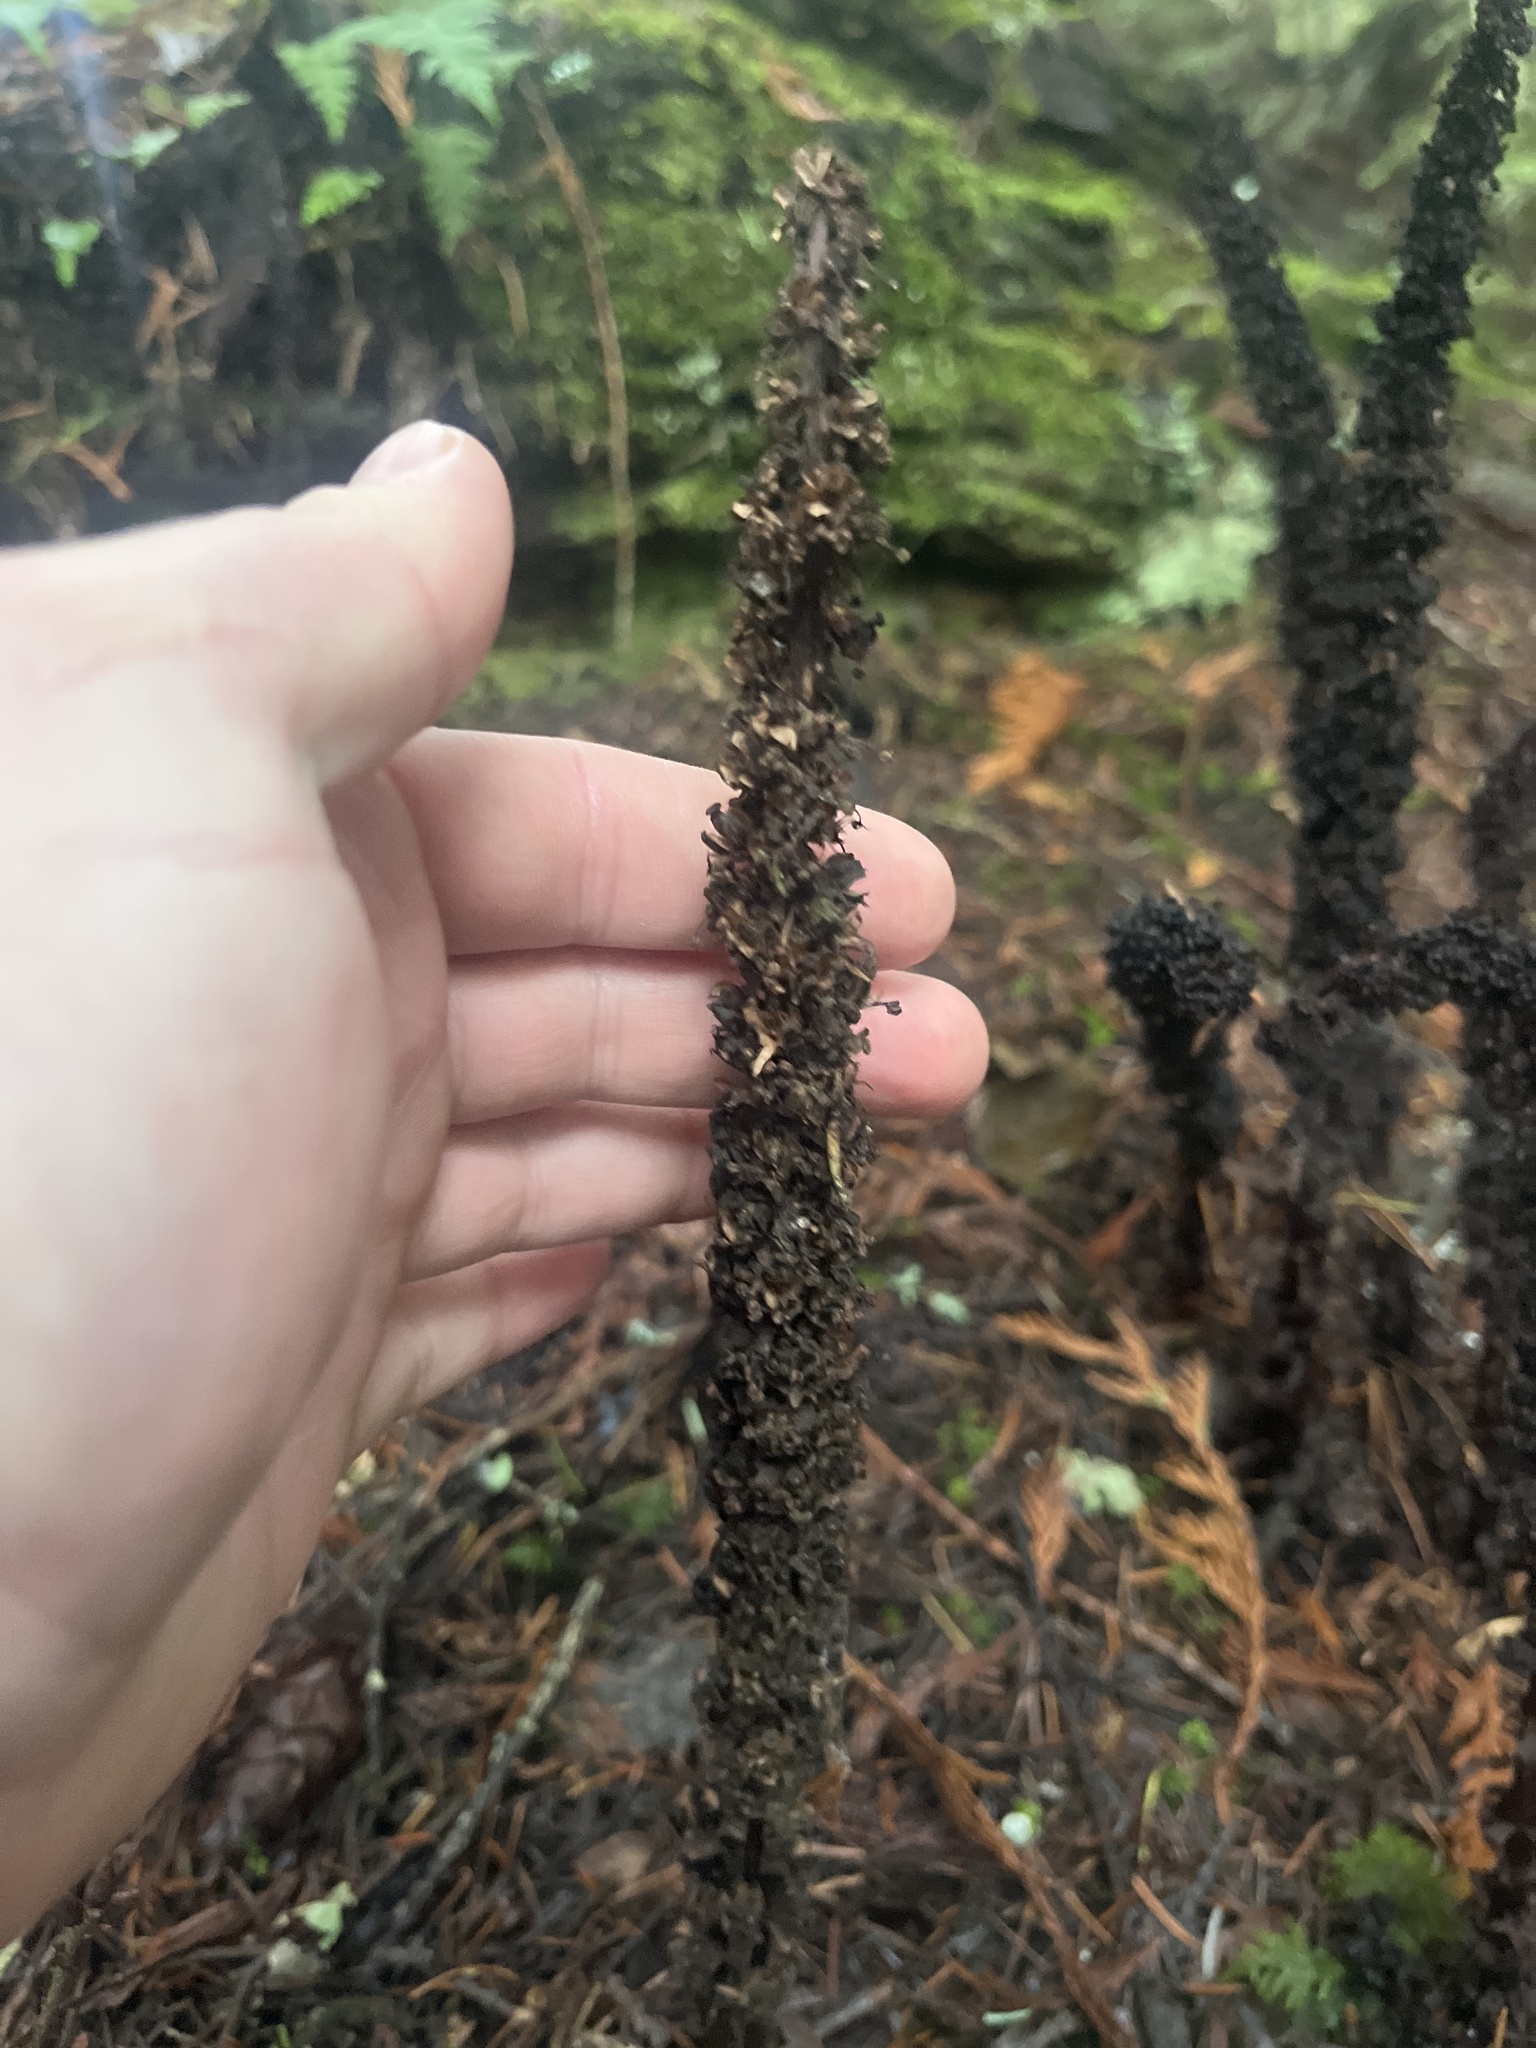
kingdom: Plantae
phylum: Tracheophyta
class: Magnoliopsida
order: Ericales
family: Ericaceae
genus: Allotropa
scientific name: Allotropa virgata
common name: Candy-striped allotropa
